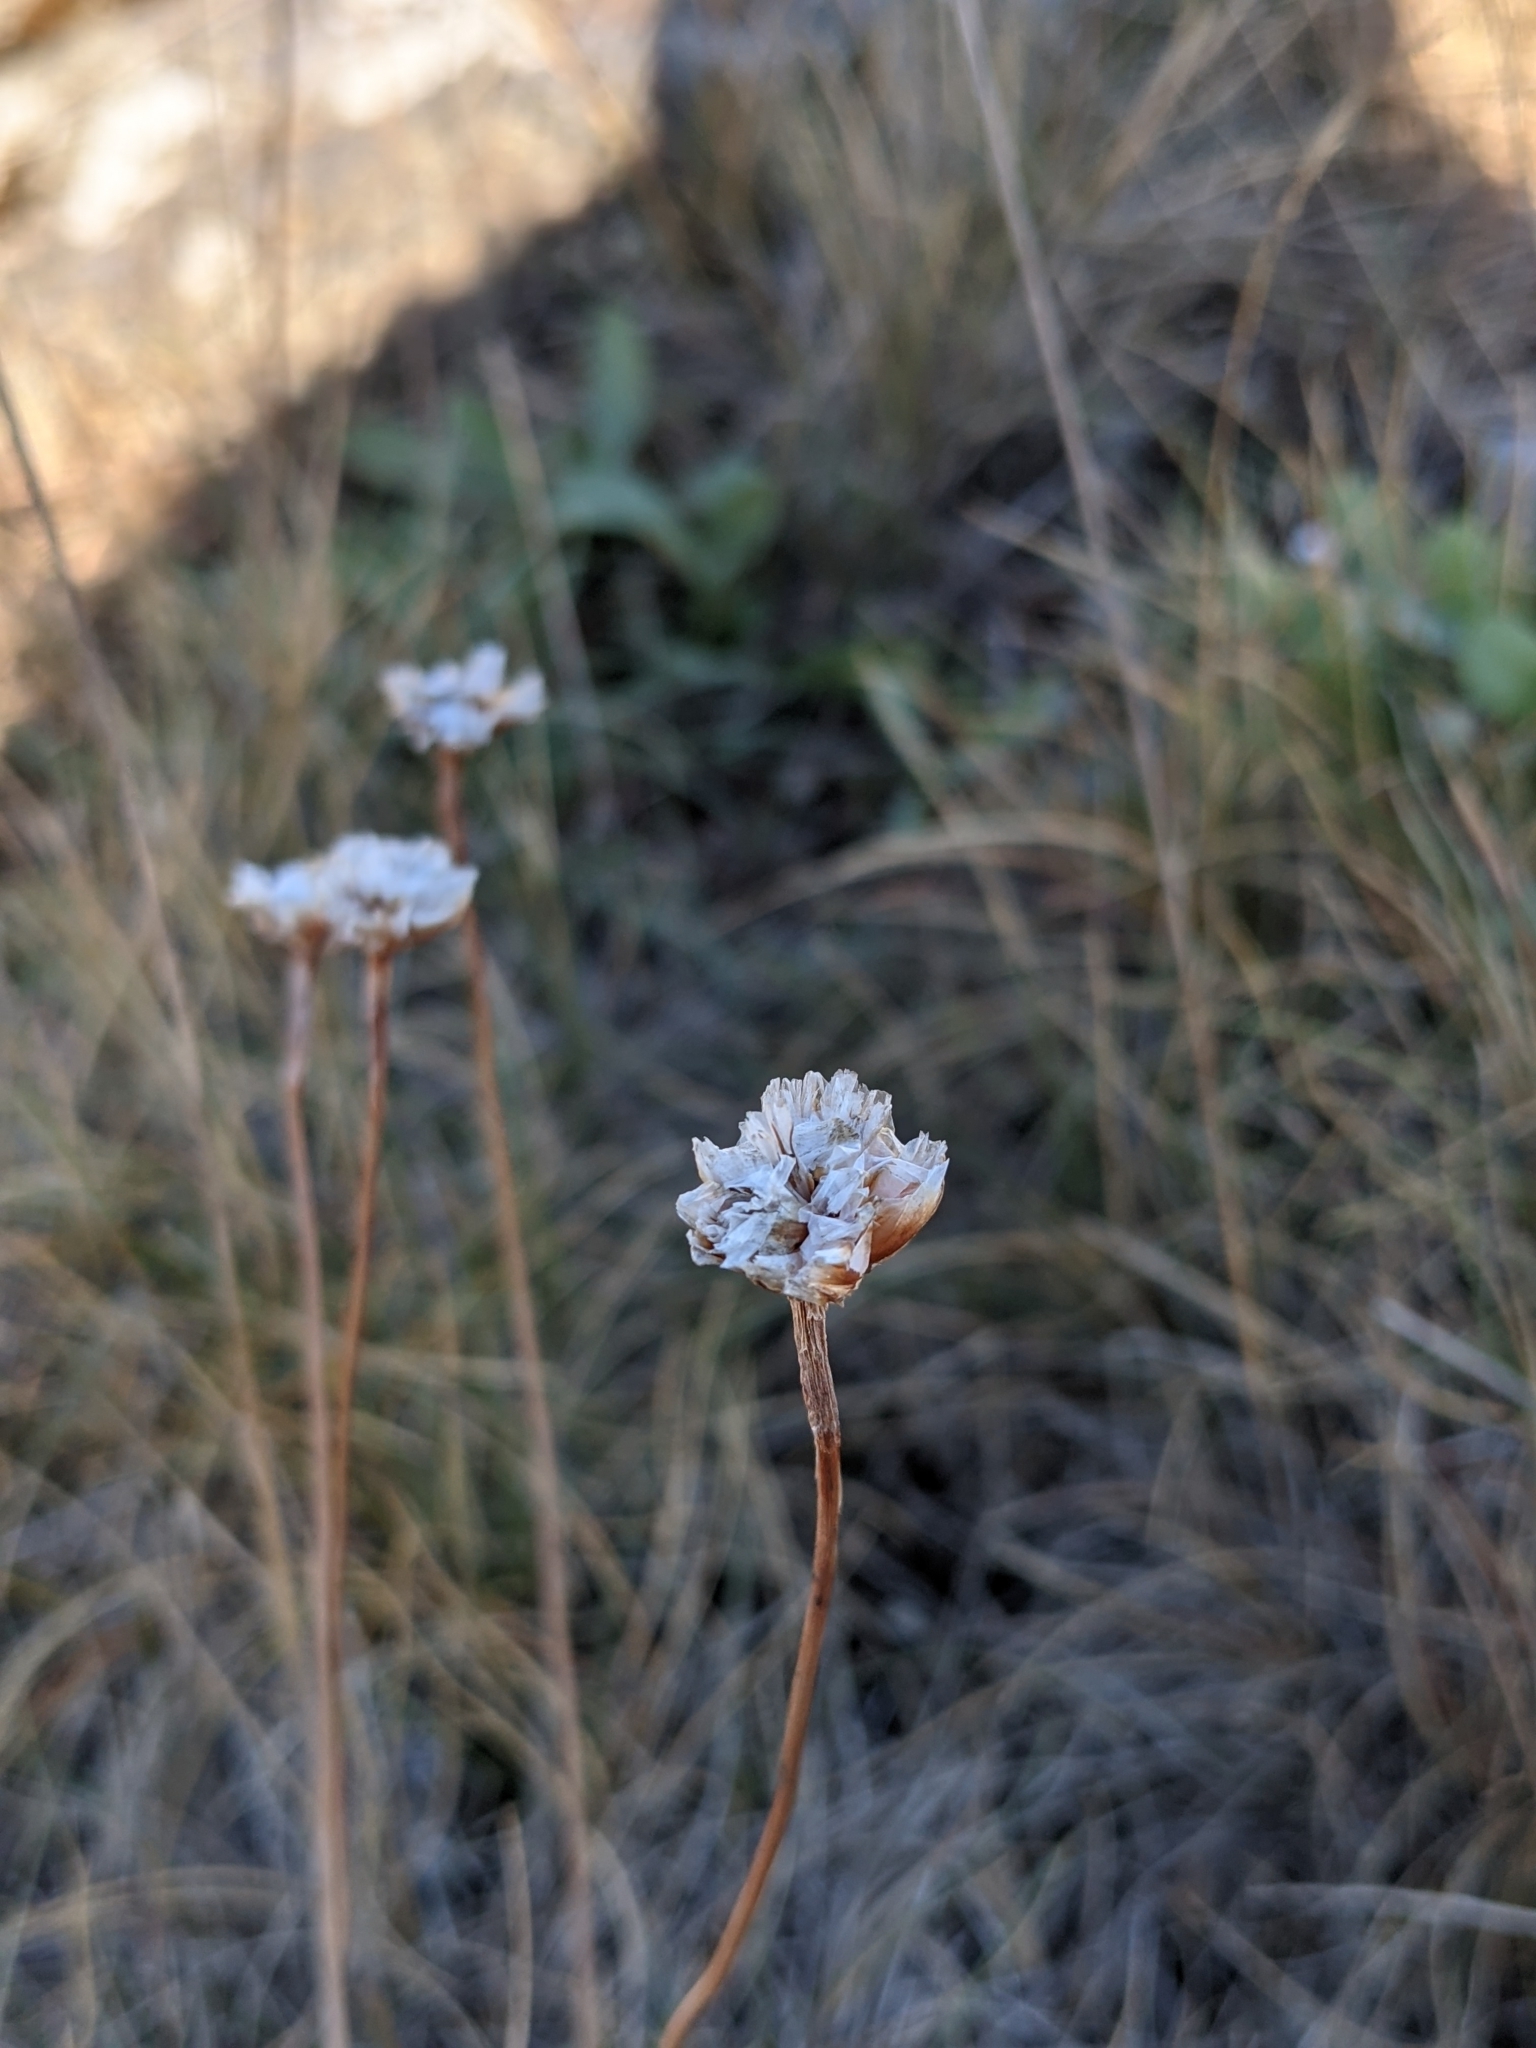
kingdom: Plantae
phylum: Tracheophyta
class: Magnoliopsida
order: Caryophyllales
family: Plumbaginaceae
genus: Armeria
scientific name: Armeria maritima
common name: Thrift
